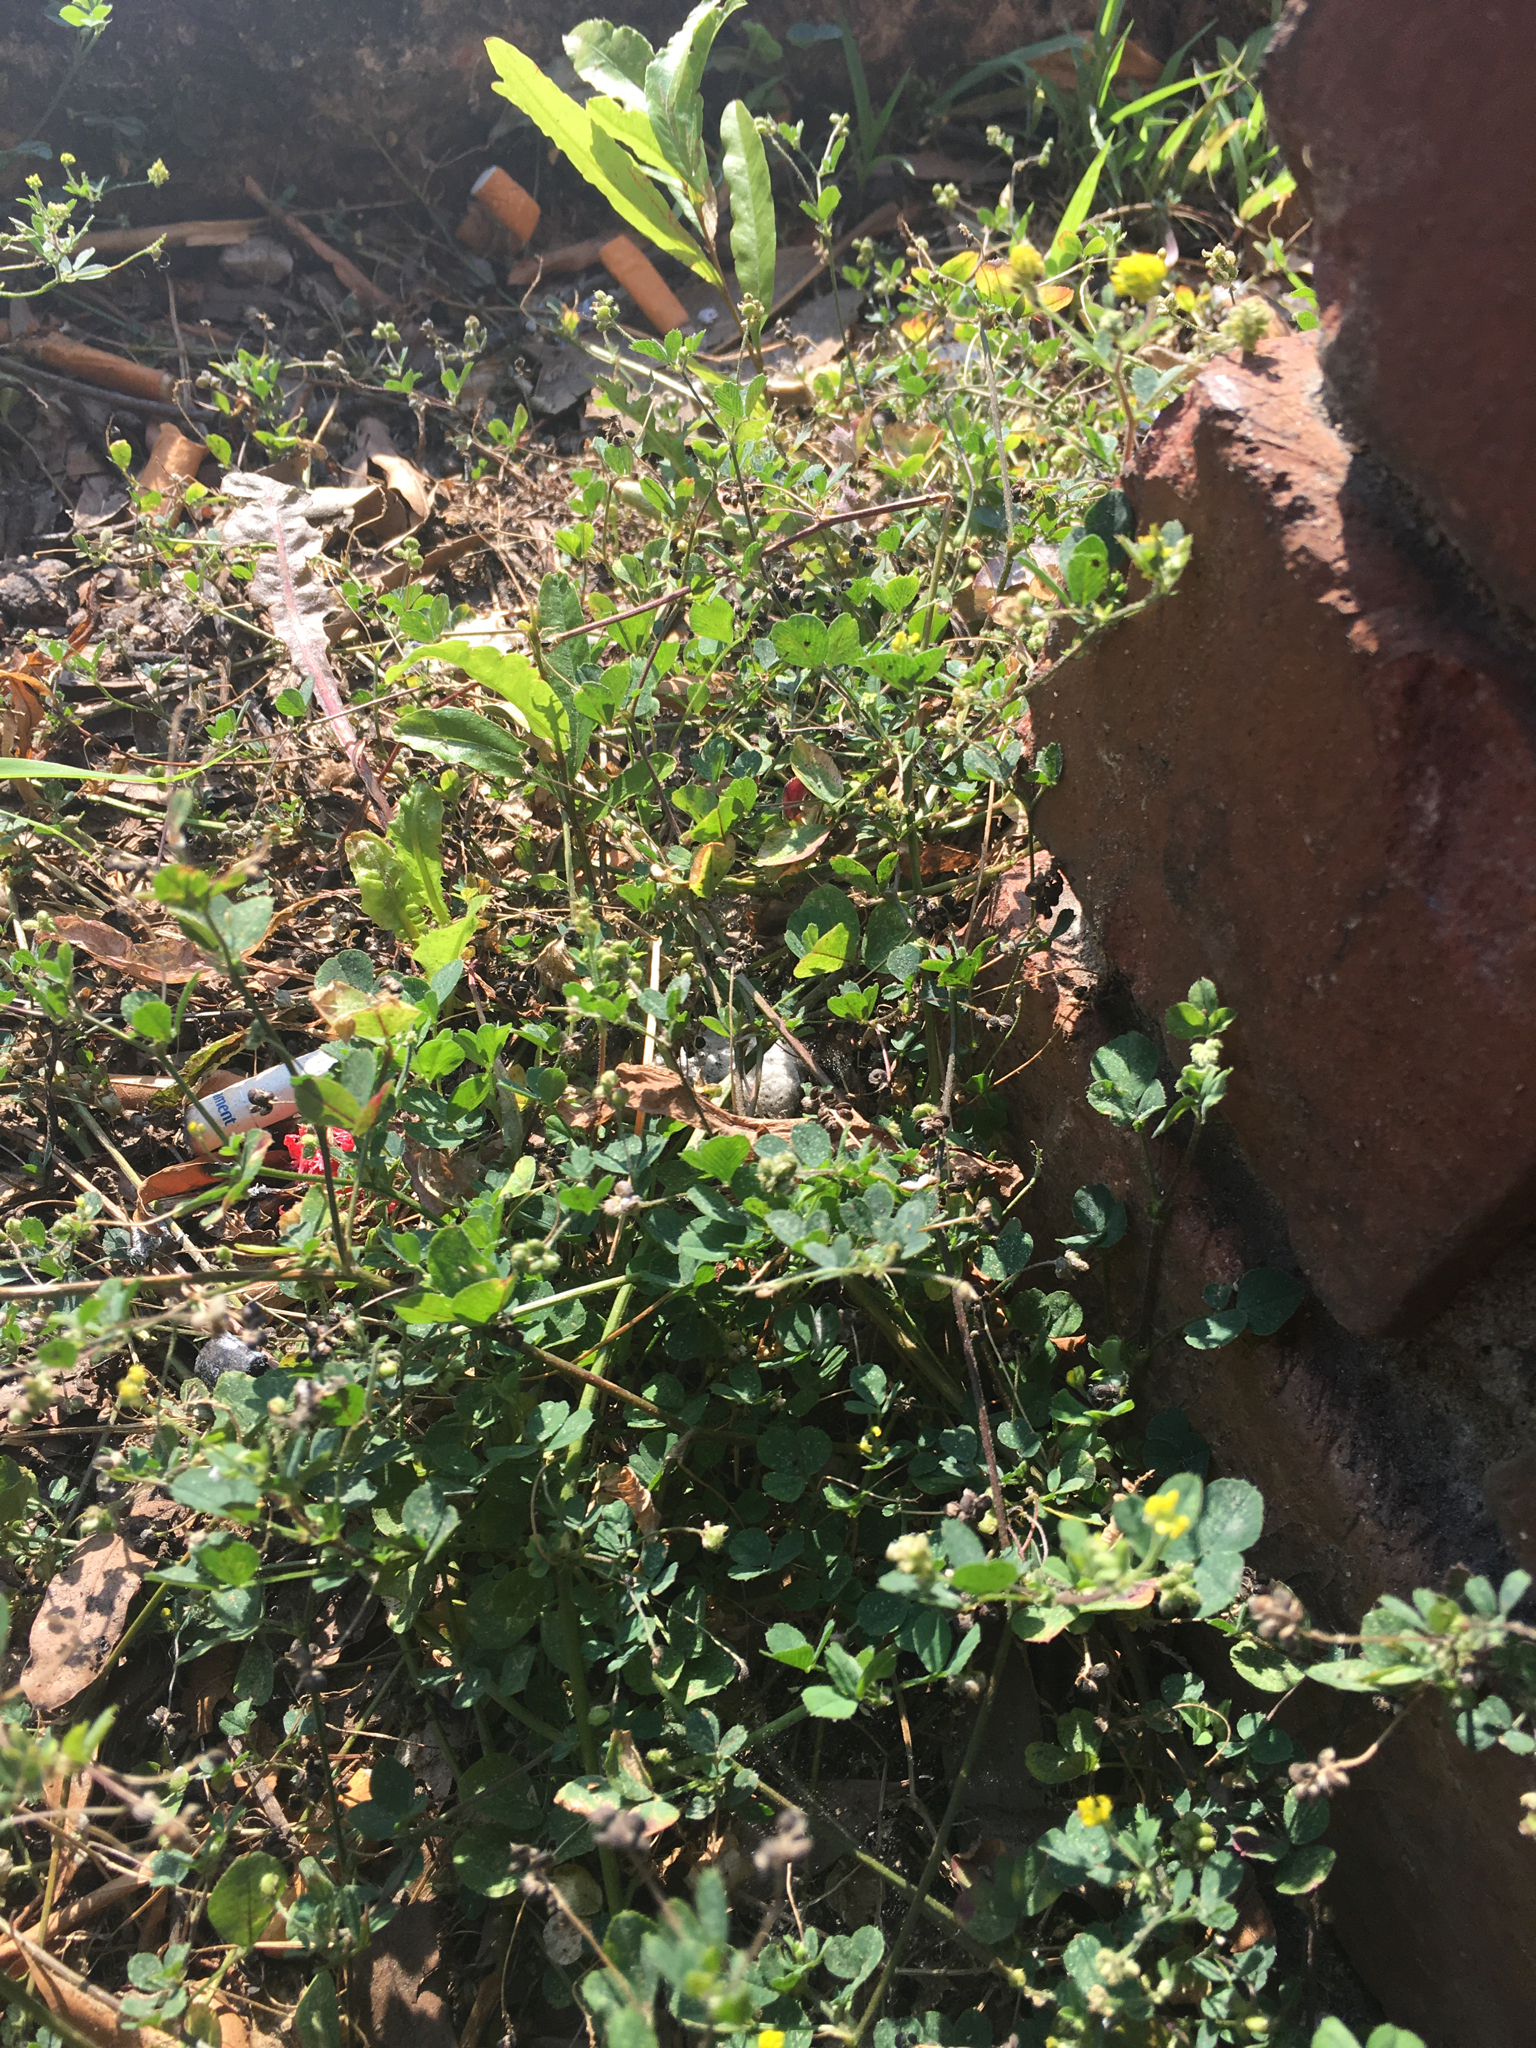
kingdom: Plantae
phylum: Tracheophyta
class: Magnoliopsida
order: Fabales
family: Fabaceae
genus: Medicago
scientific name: Medicago lupulina
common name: Black medick
